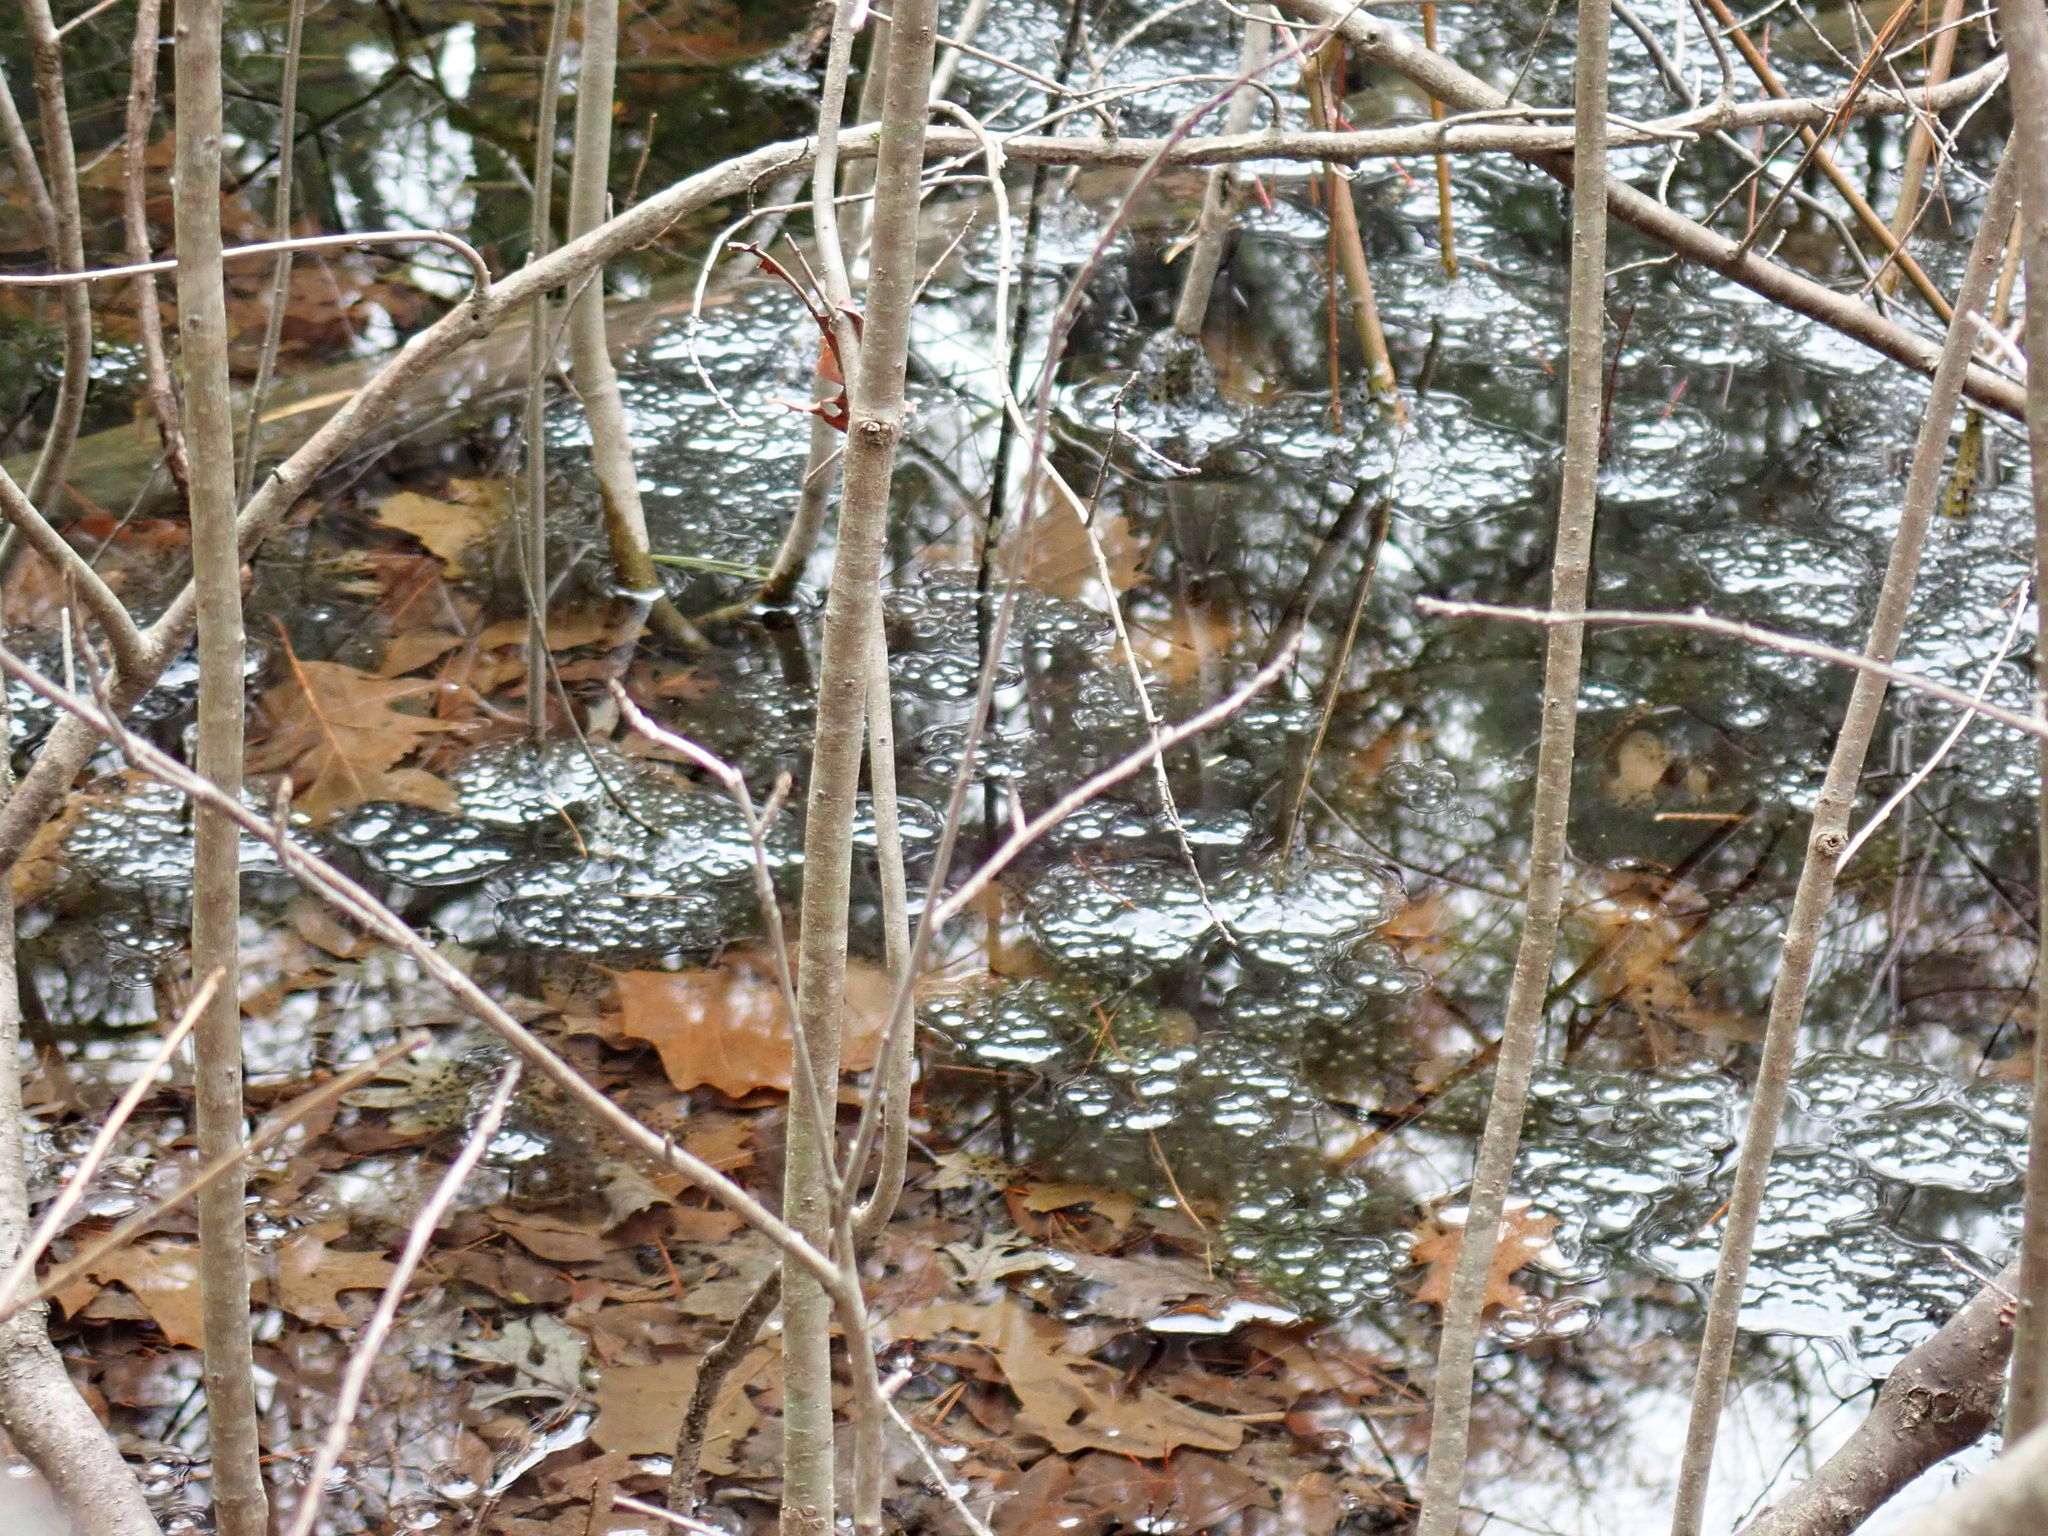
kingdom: Animalia
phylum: Chordata
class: Amphibia
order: Anura
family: Ranidae
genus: Lithobates
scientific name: Lithobates sylvaticus
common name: Wood frog
